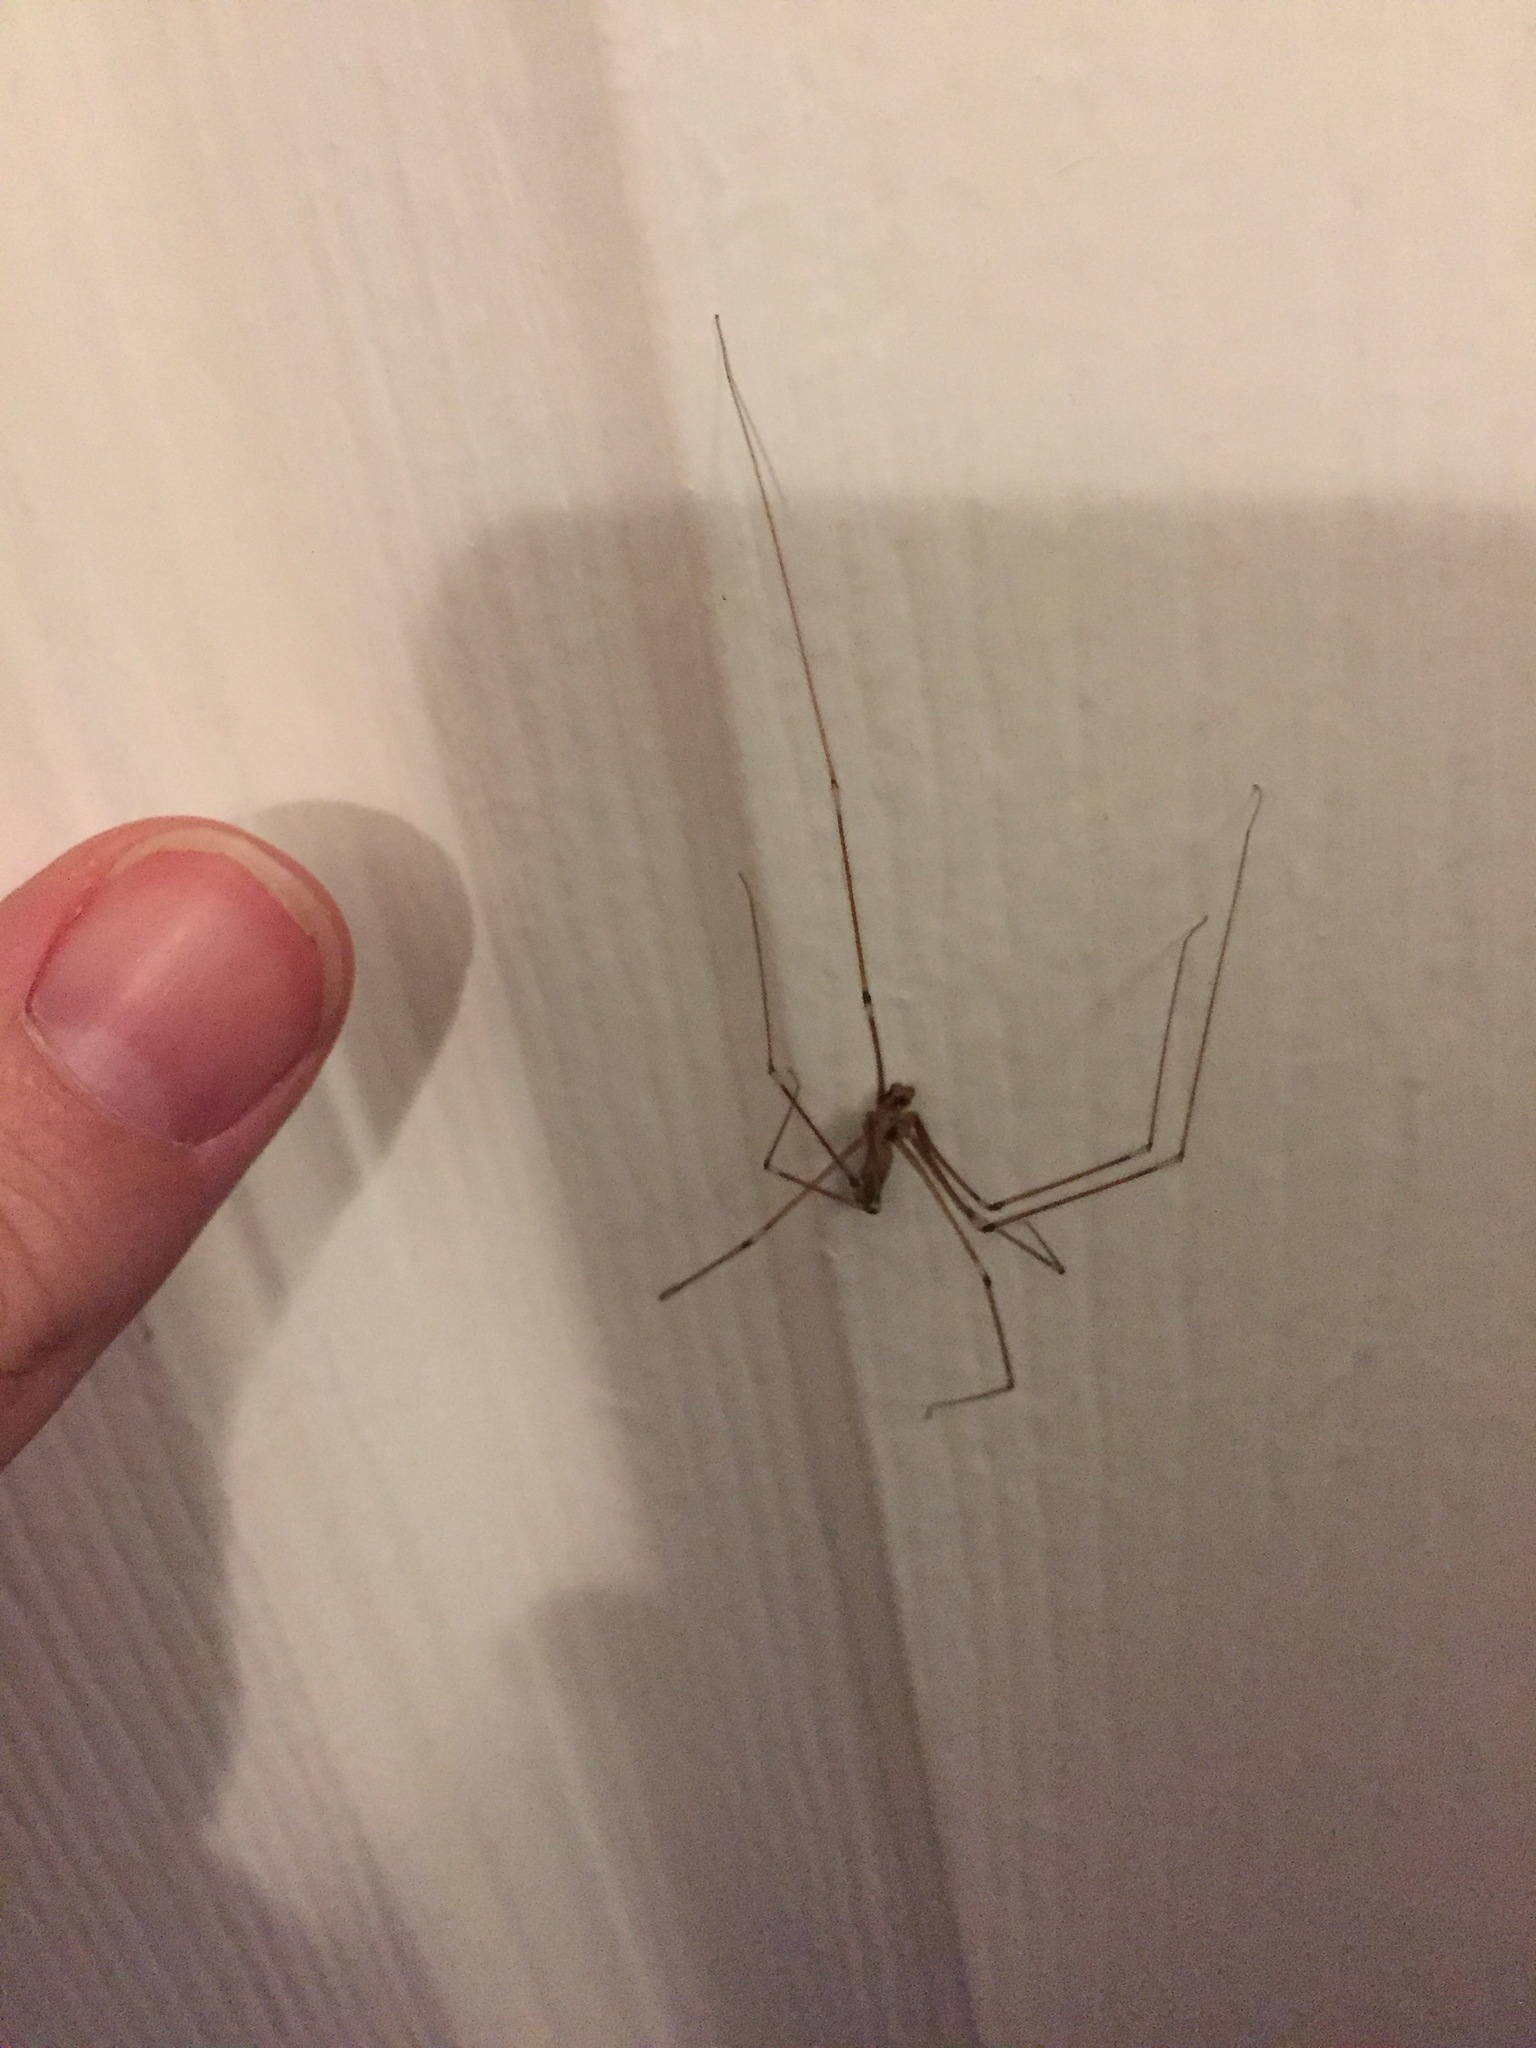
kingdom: Animalia
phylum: Arthropoda
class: Arachnida
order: Araneae
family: Pholcidae
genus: Pholcus
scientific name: Pholcus phalangioides
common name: Longbodied cellar spider
